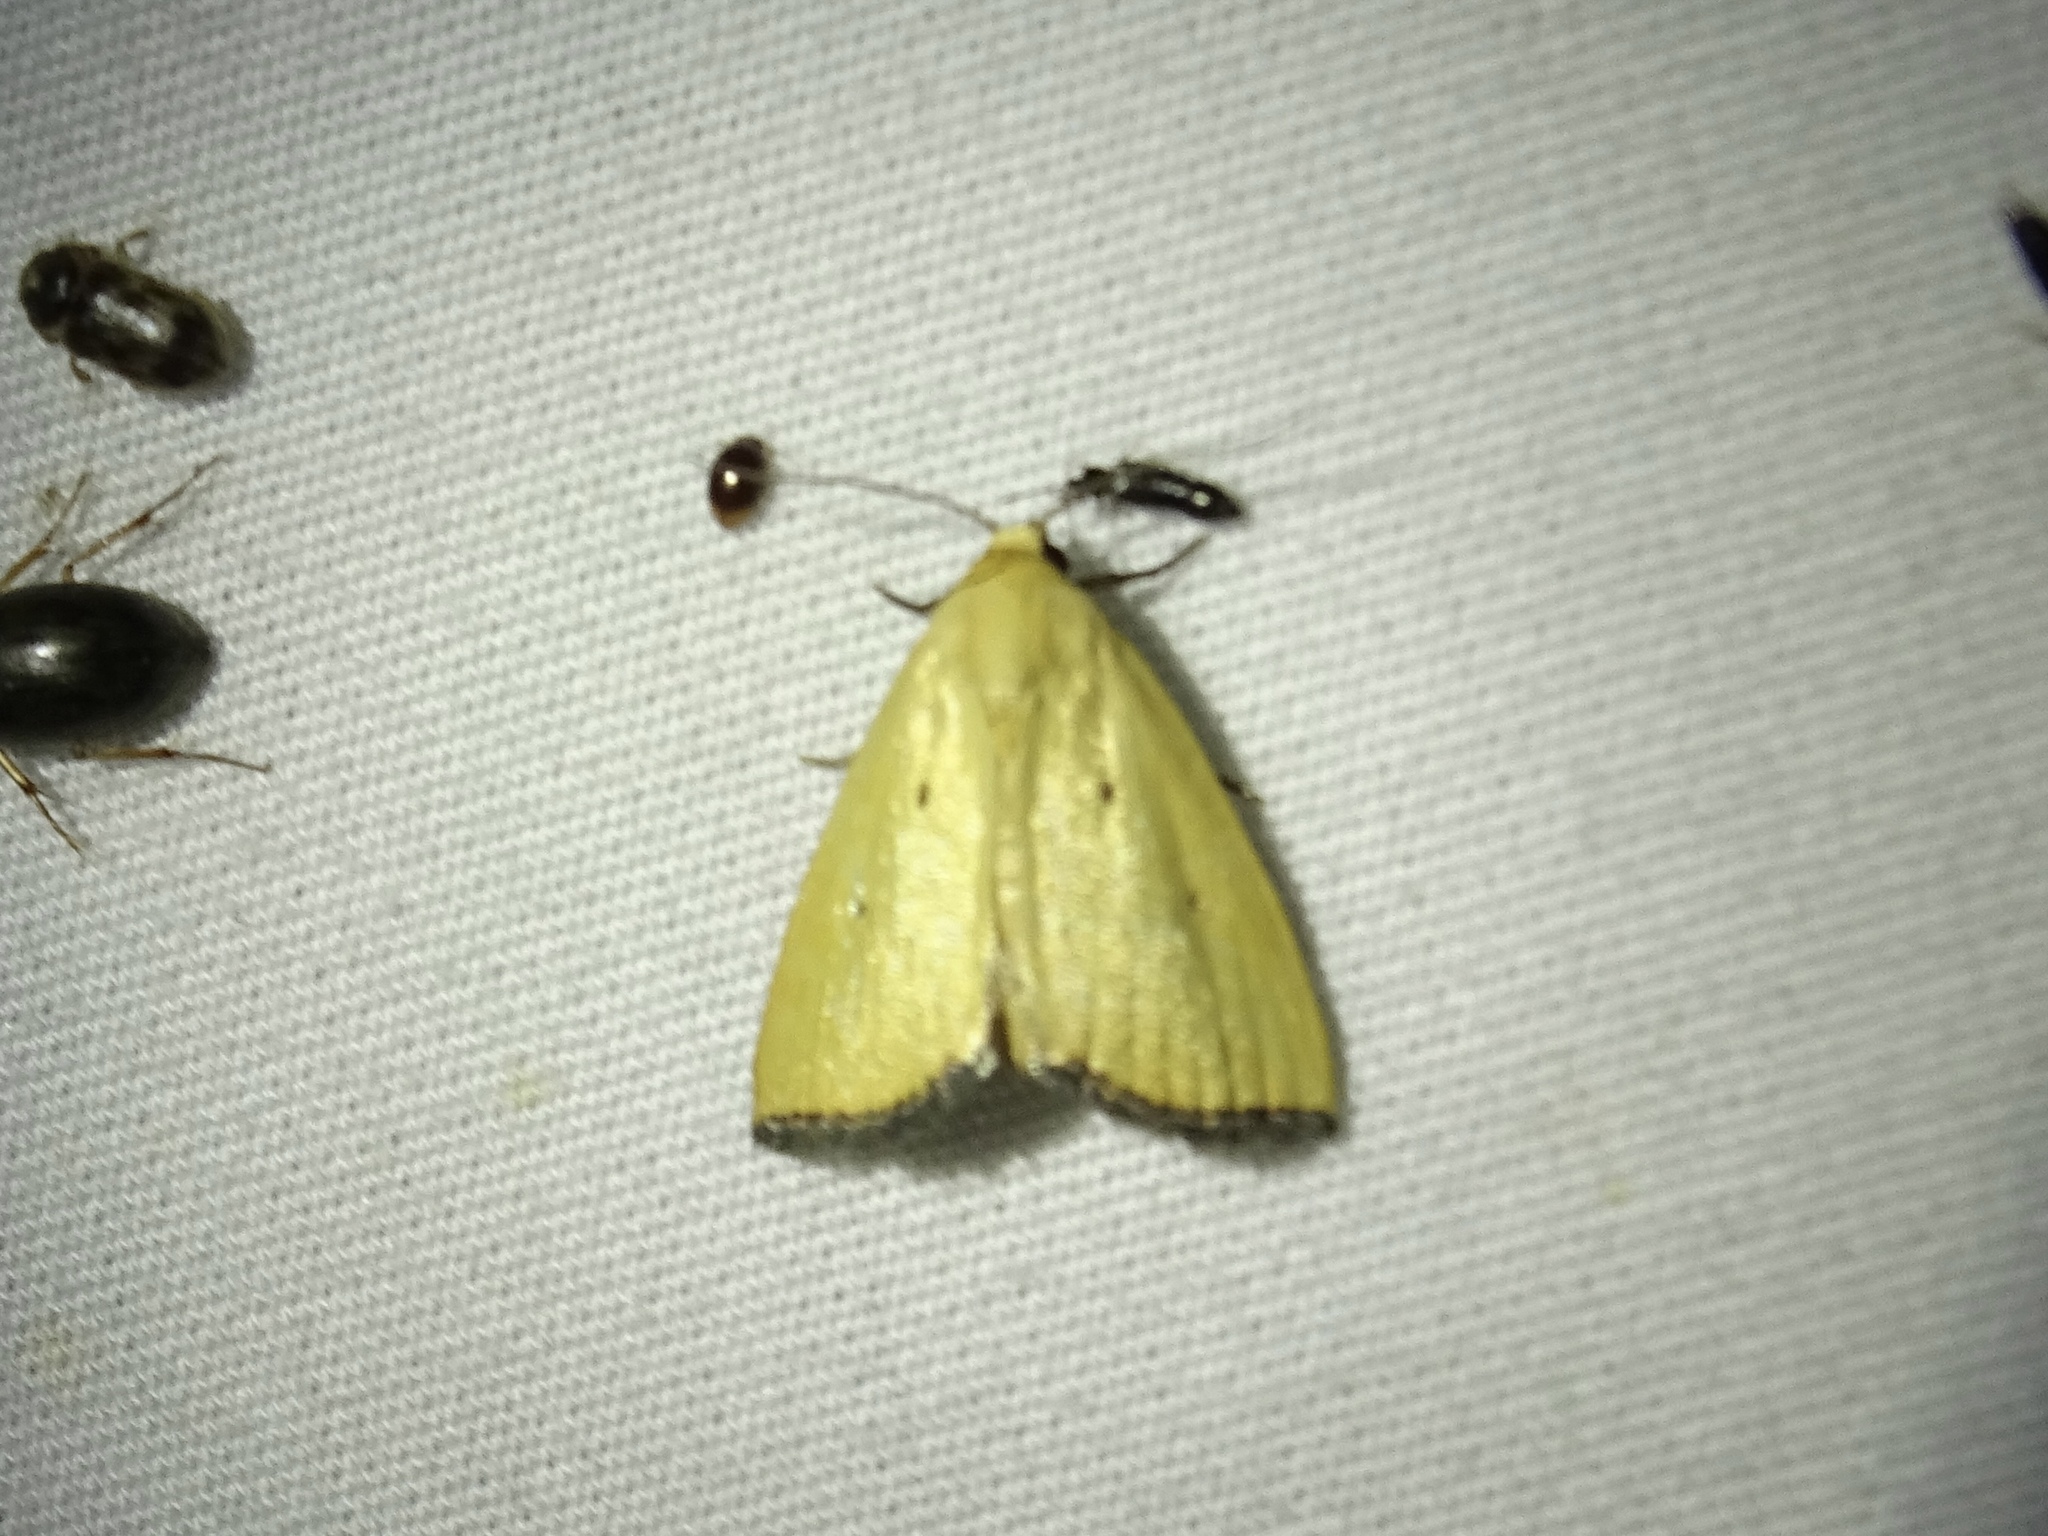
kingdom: Animalia
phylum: Arthropoda
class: Insecta
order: Lepidoptera
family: Noctuidae
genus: Marimatha
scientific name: Marimatha nigrofimbria
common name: Black-bordered lemon moth
